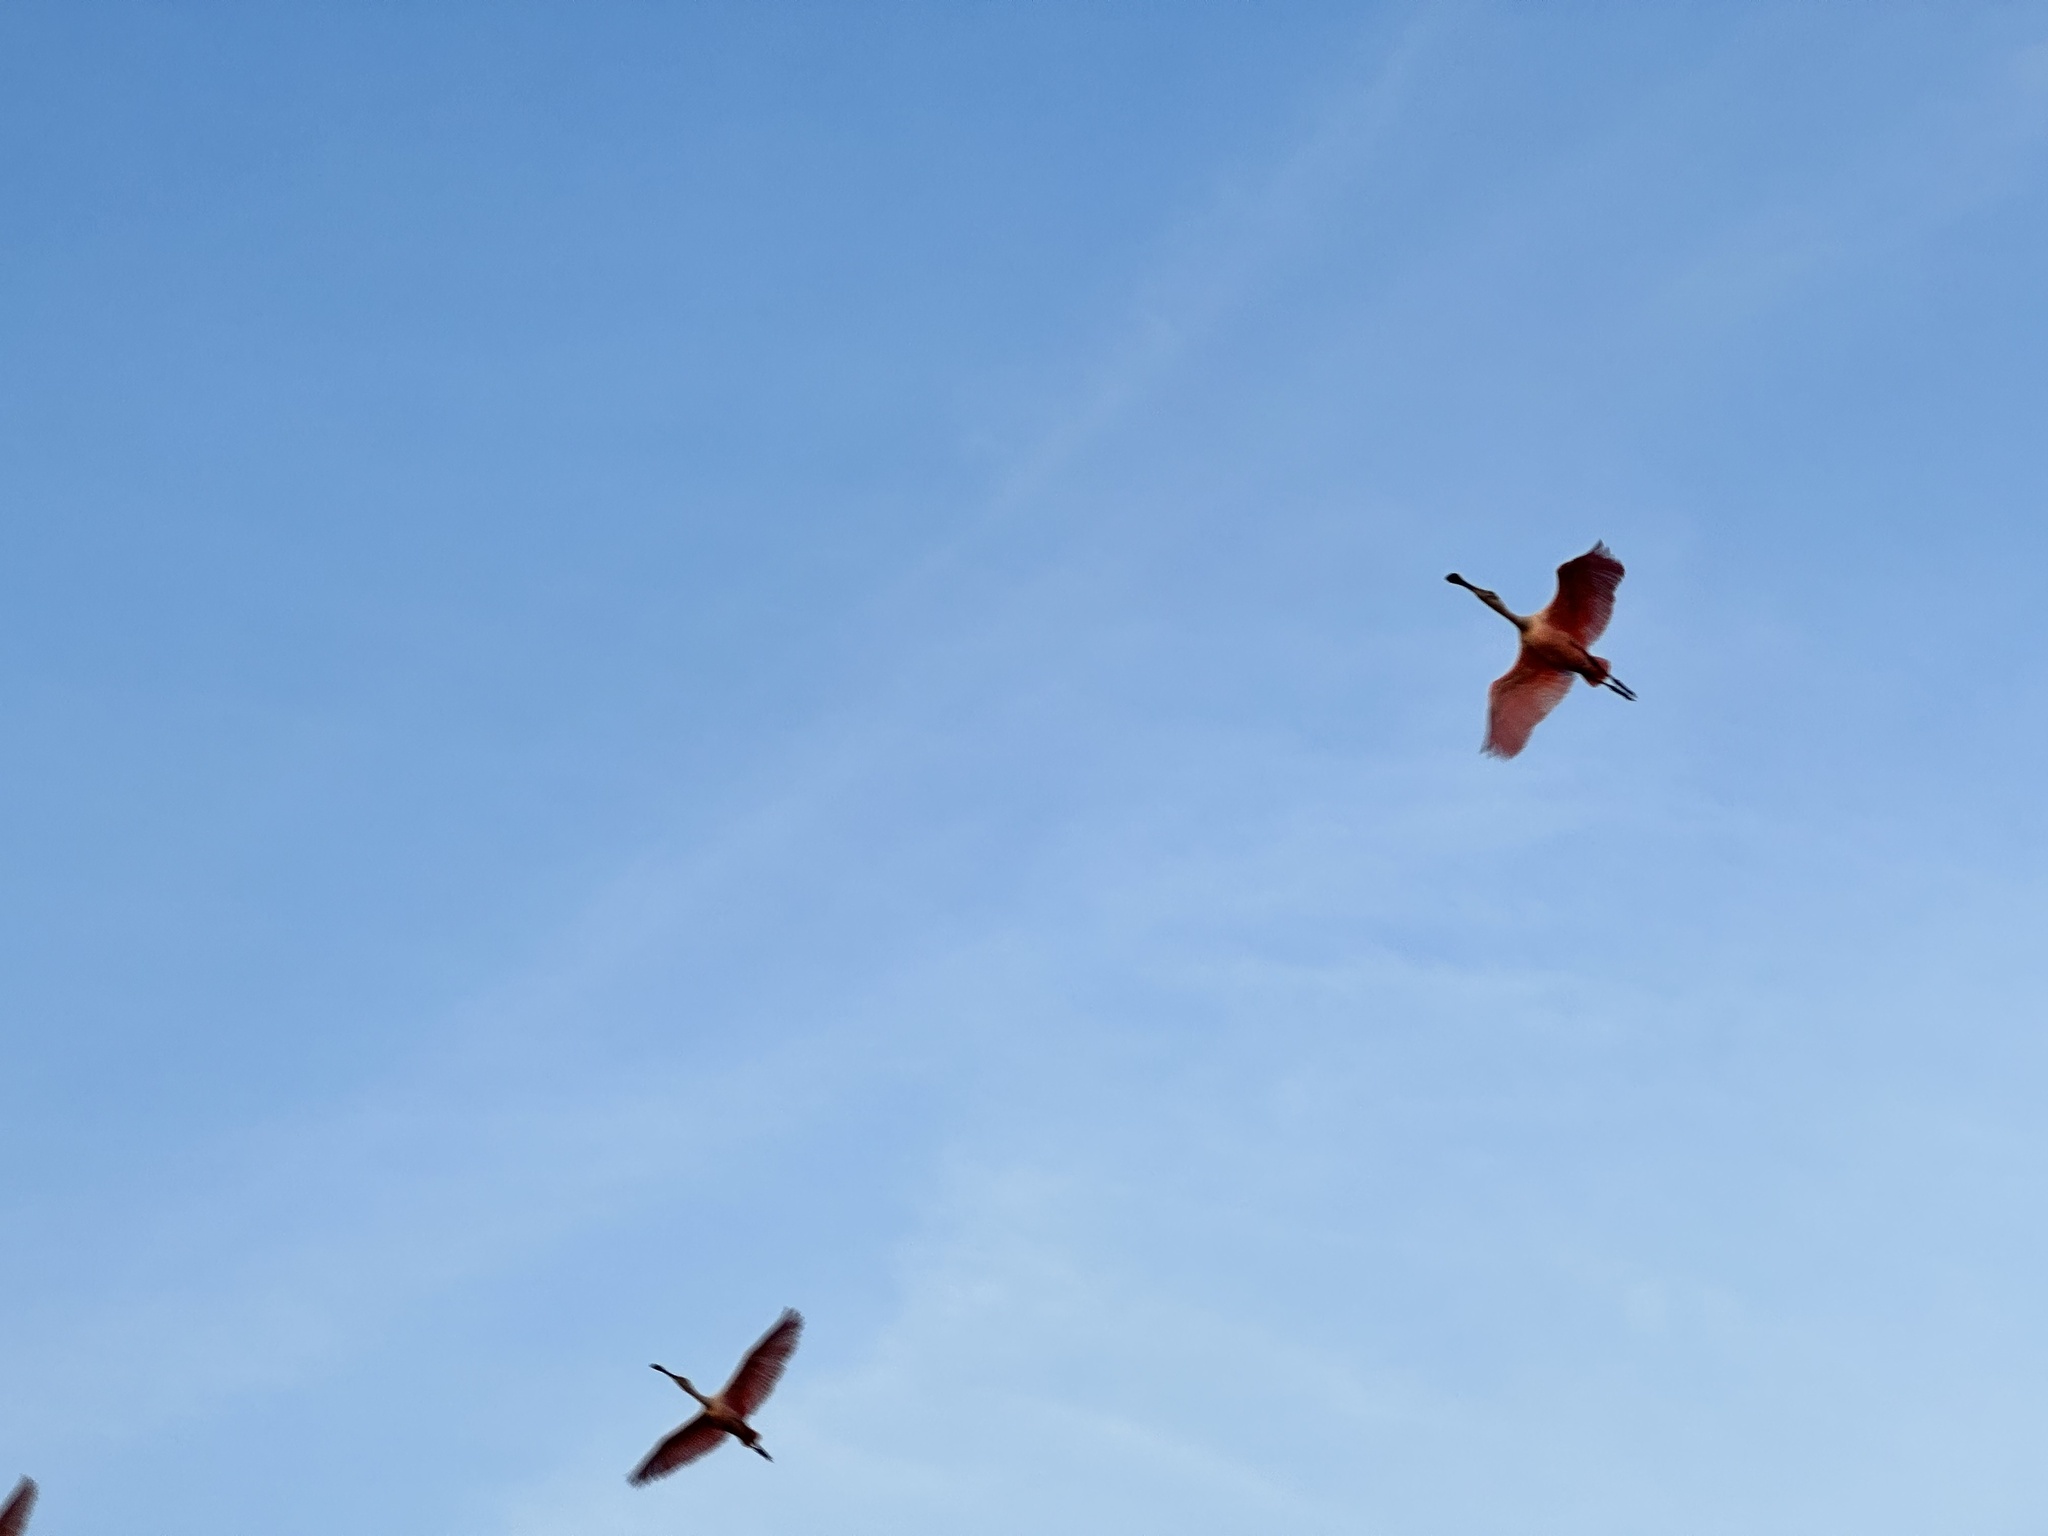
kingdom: Animalia
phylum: Chordata
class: Aves
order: Pelecaniformes
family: Threskiornithidae
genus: Platalea
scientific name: Platalea ajaja
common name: Roseate spoonbill
